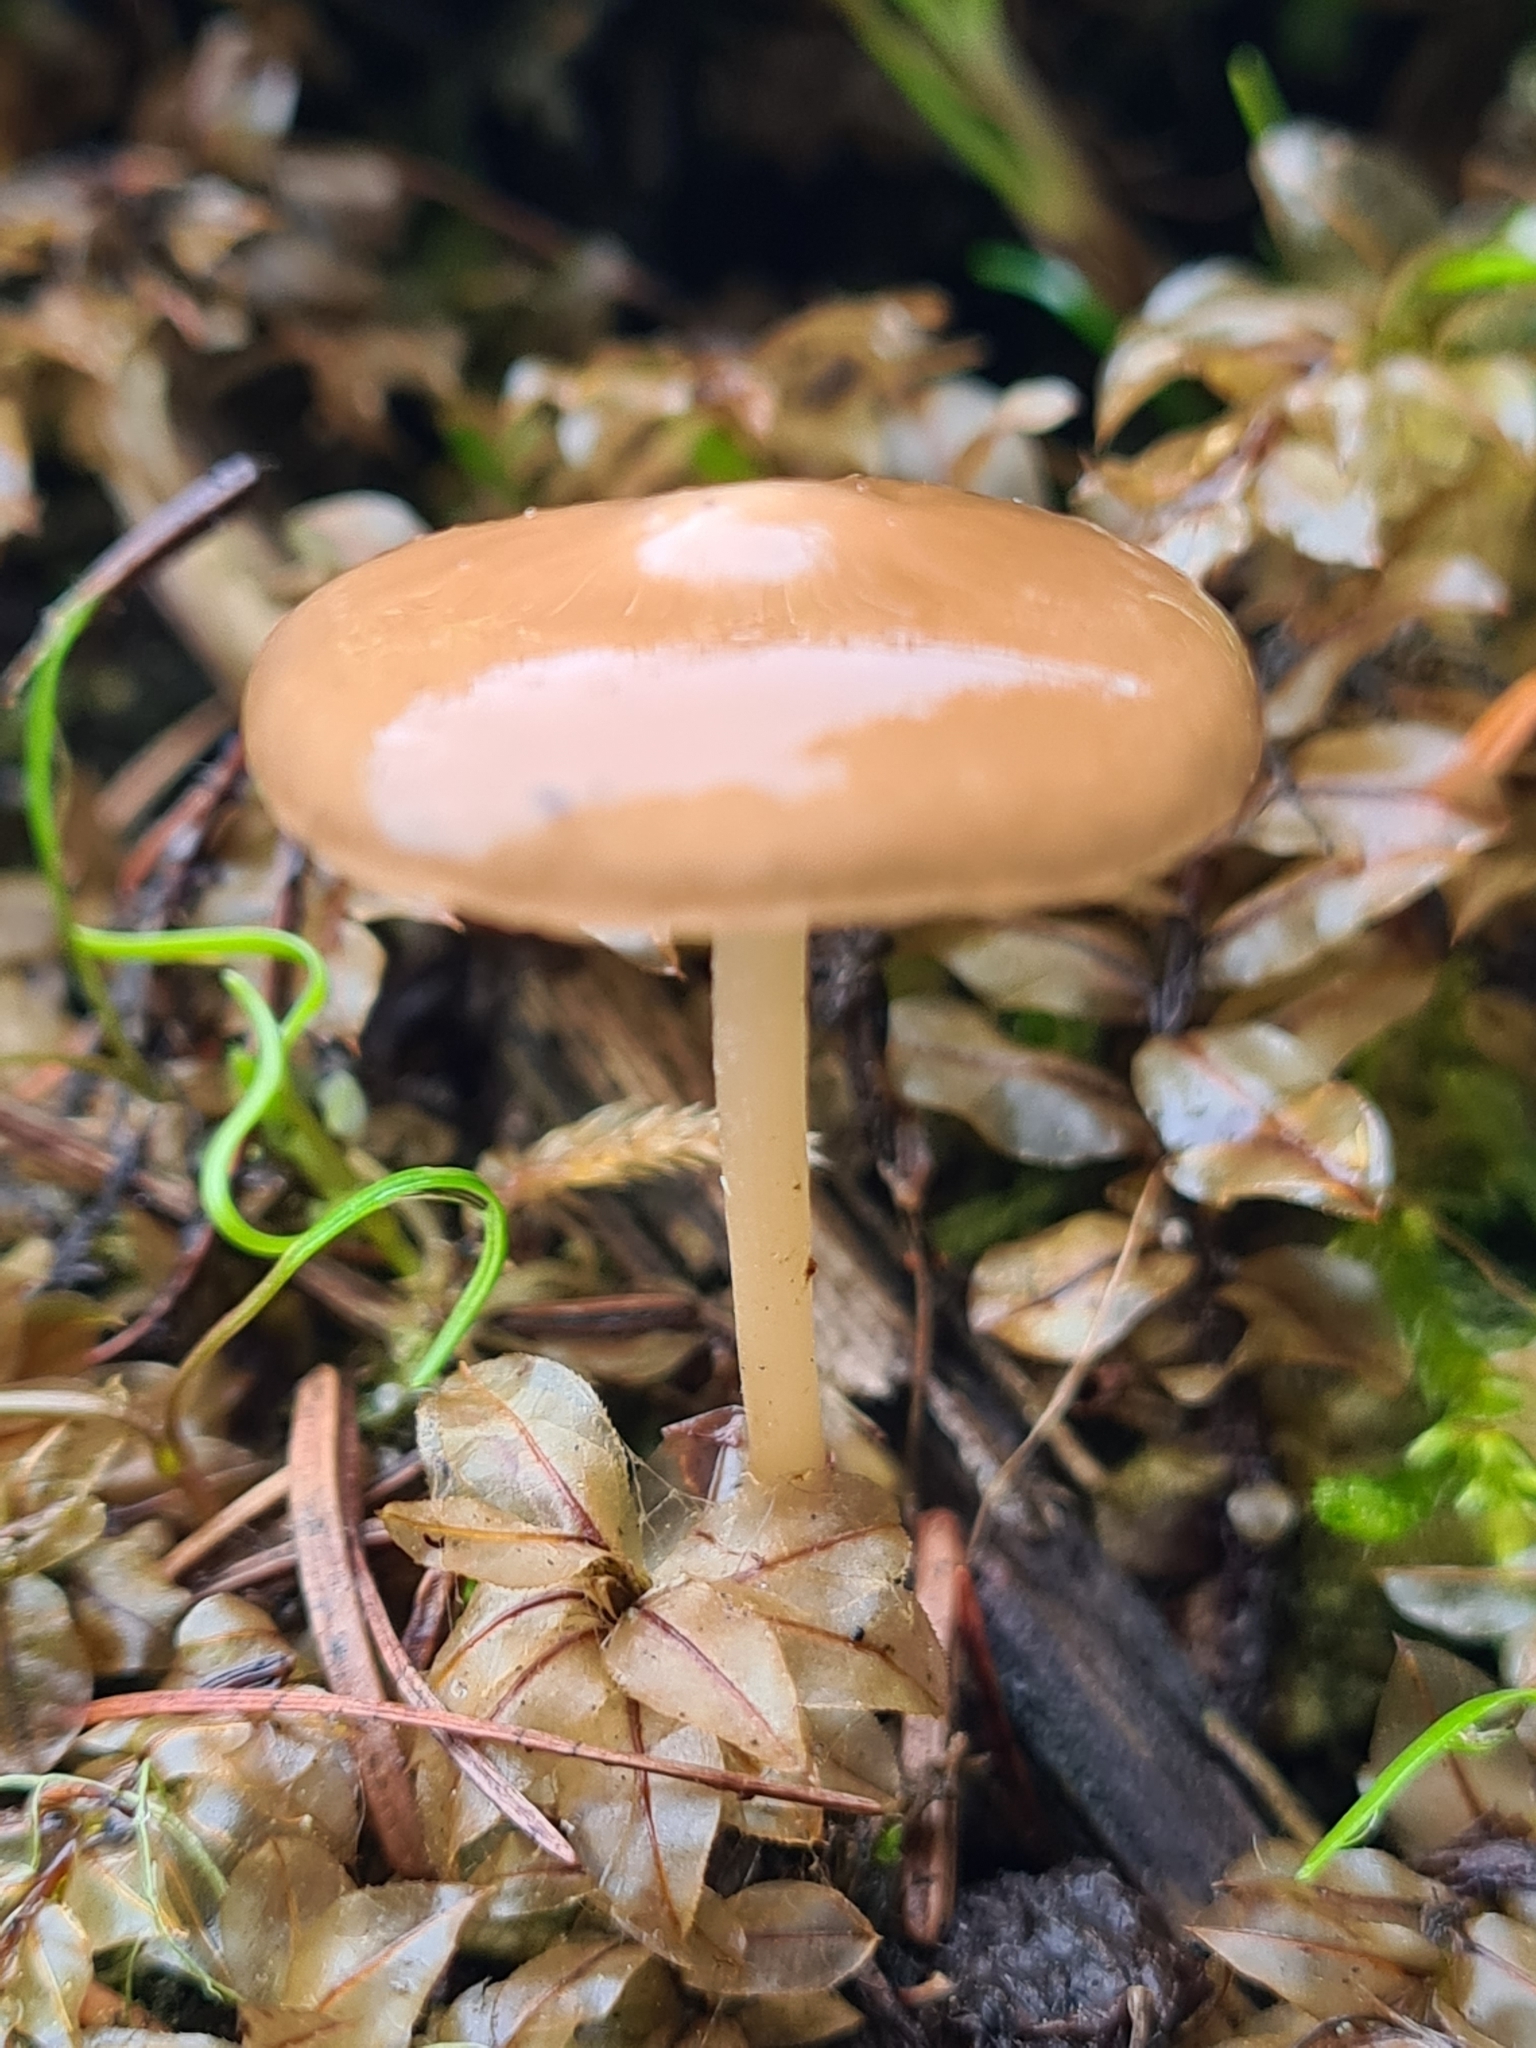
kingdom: Fungi
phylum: Basidiomycota
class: Agaricomycetes
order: Agaricales
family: Physalacriaceae
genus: Hymenopellis
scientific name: Hymenopellis radicata
